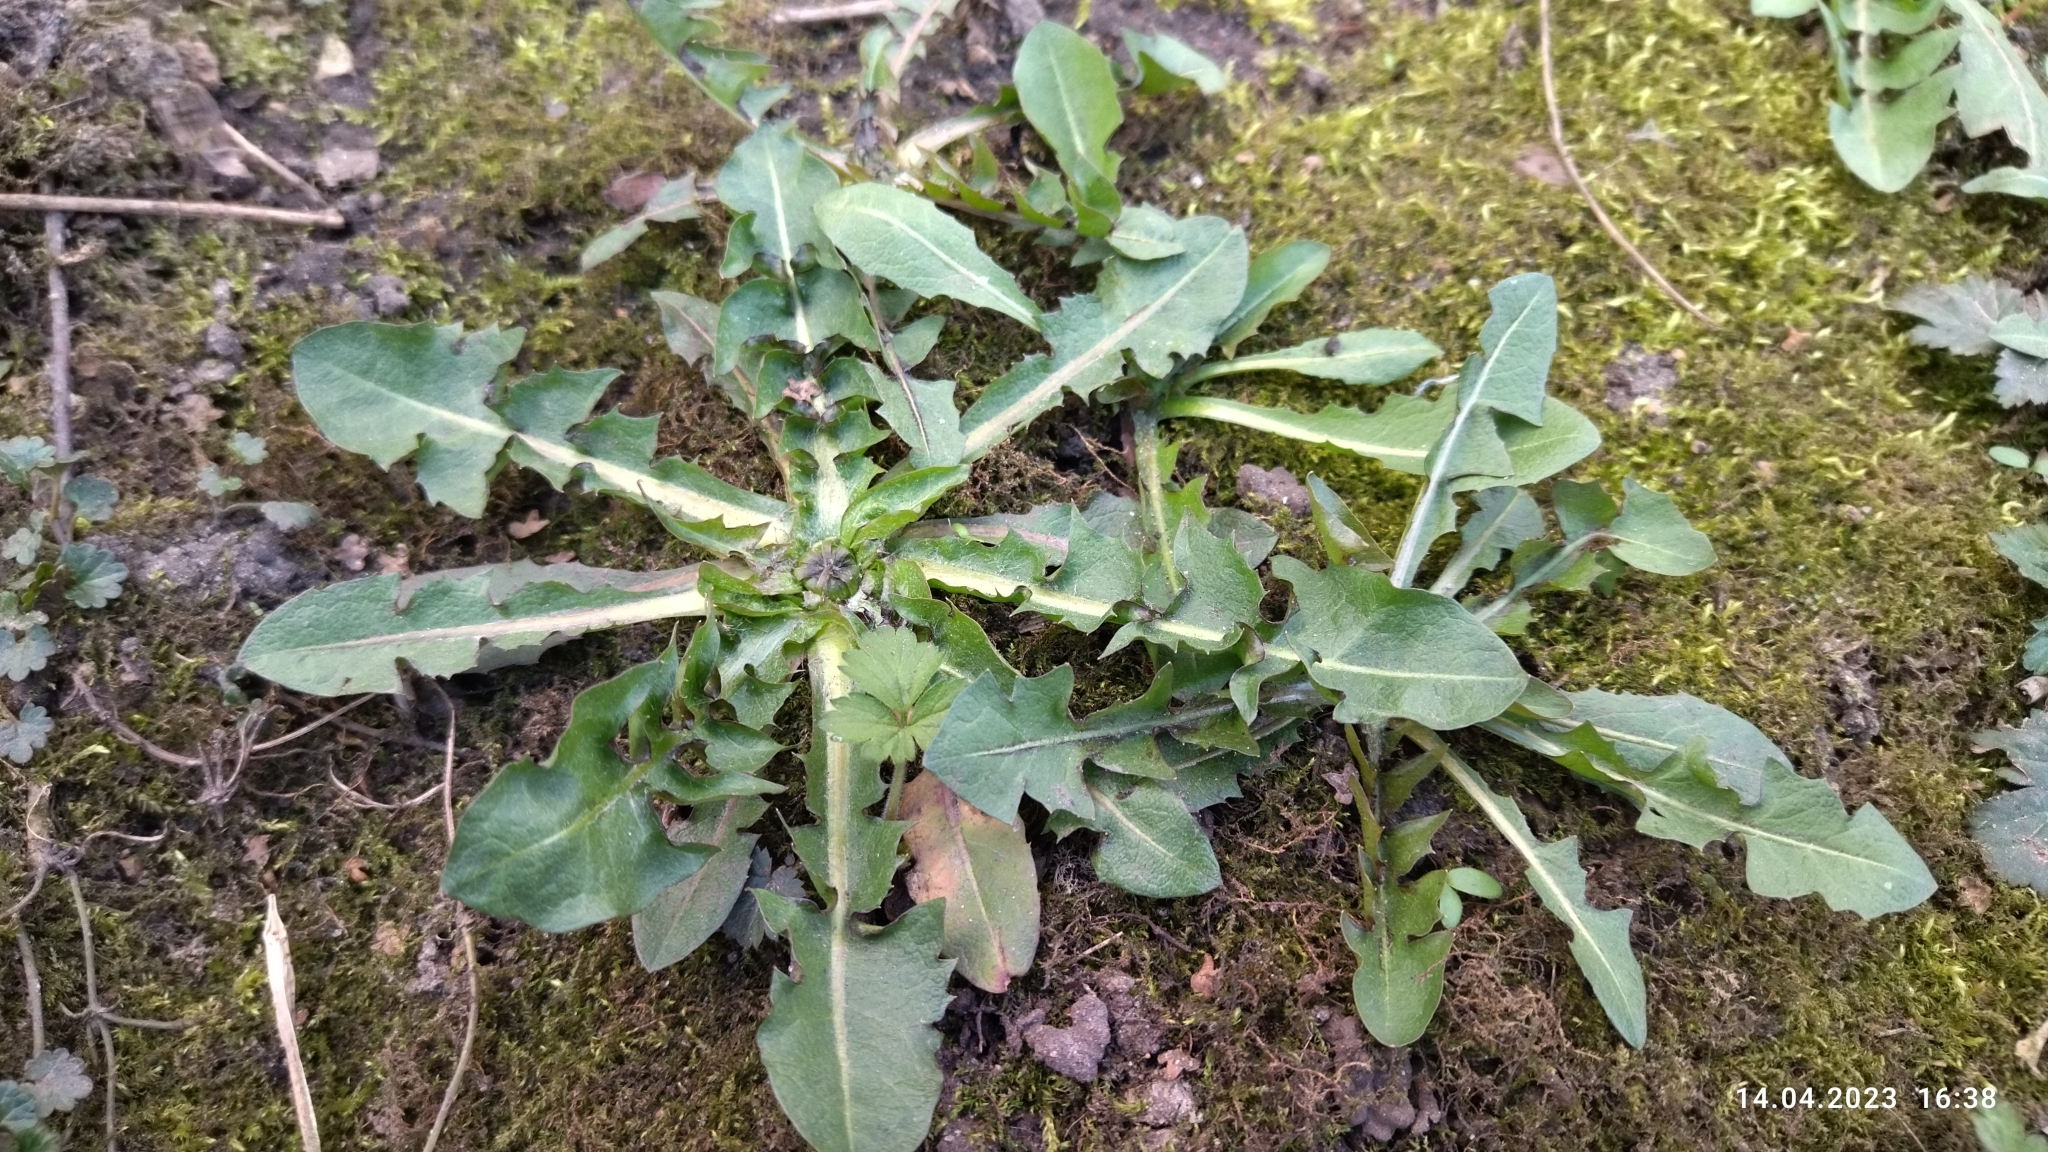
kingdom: Plantae
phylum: Tracheophyta
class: Magnoliopsida
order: Asterales
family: Asteraceae
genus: Taraxacum
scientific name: Taraxacum officinale
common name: Common dandelion
